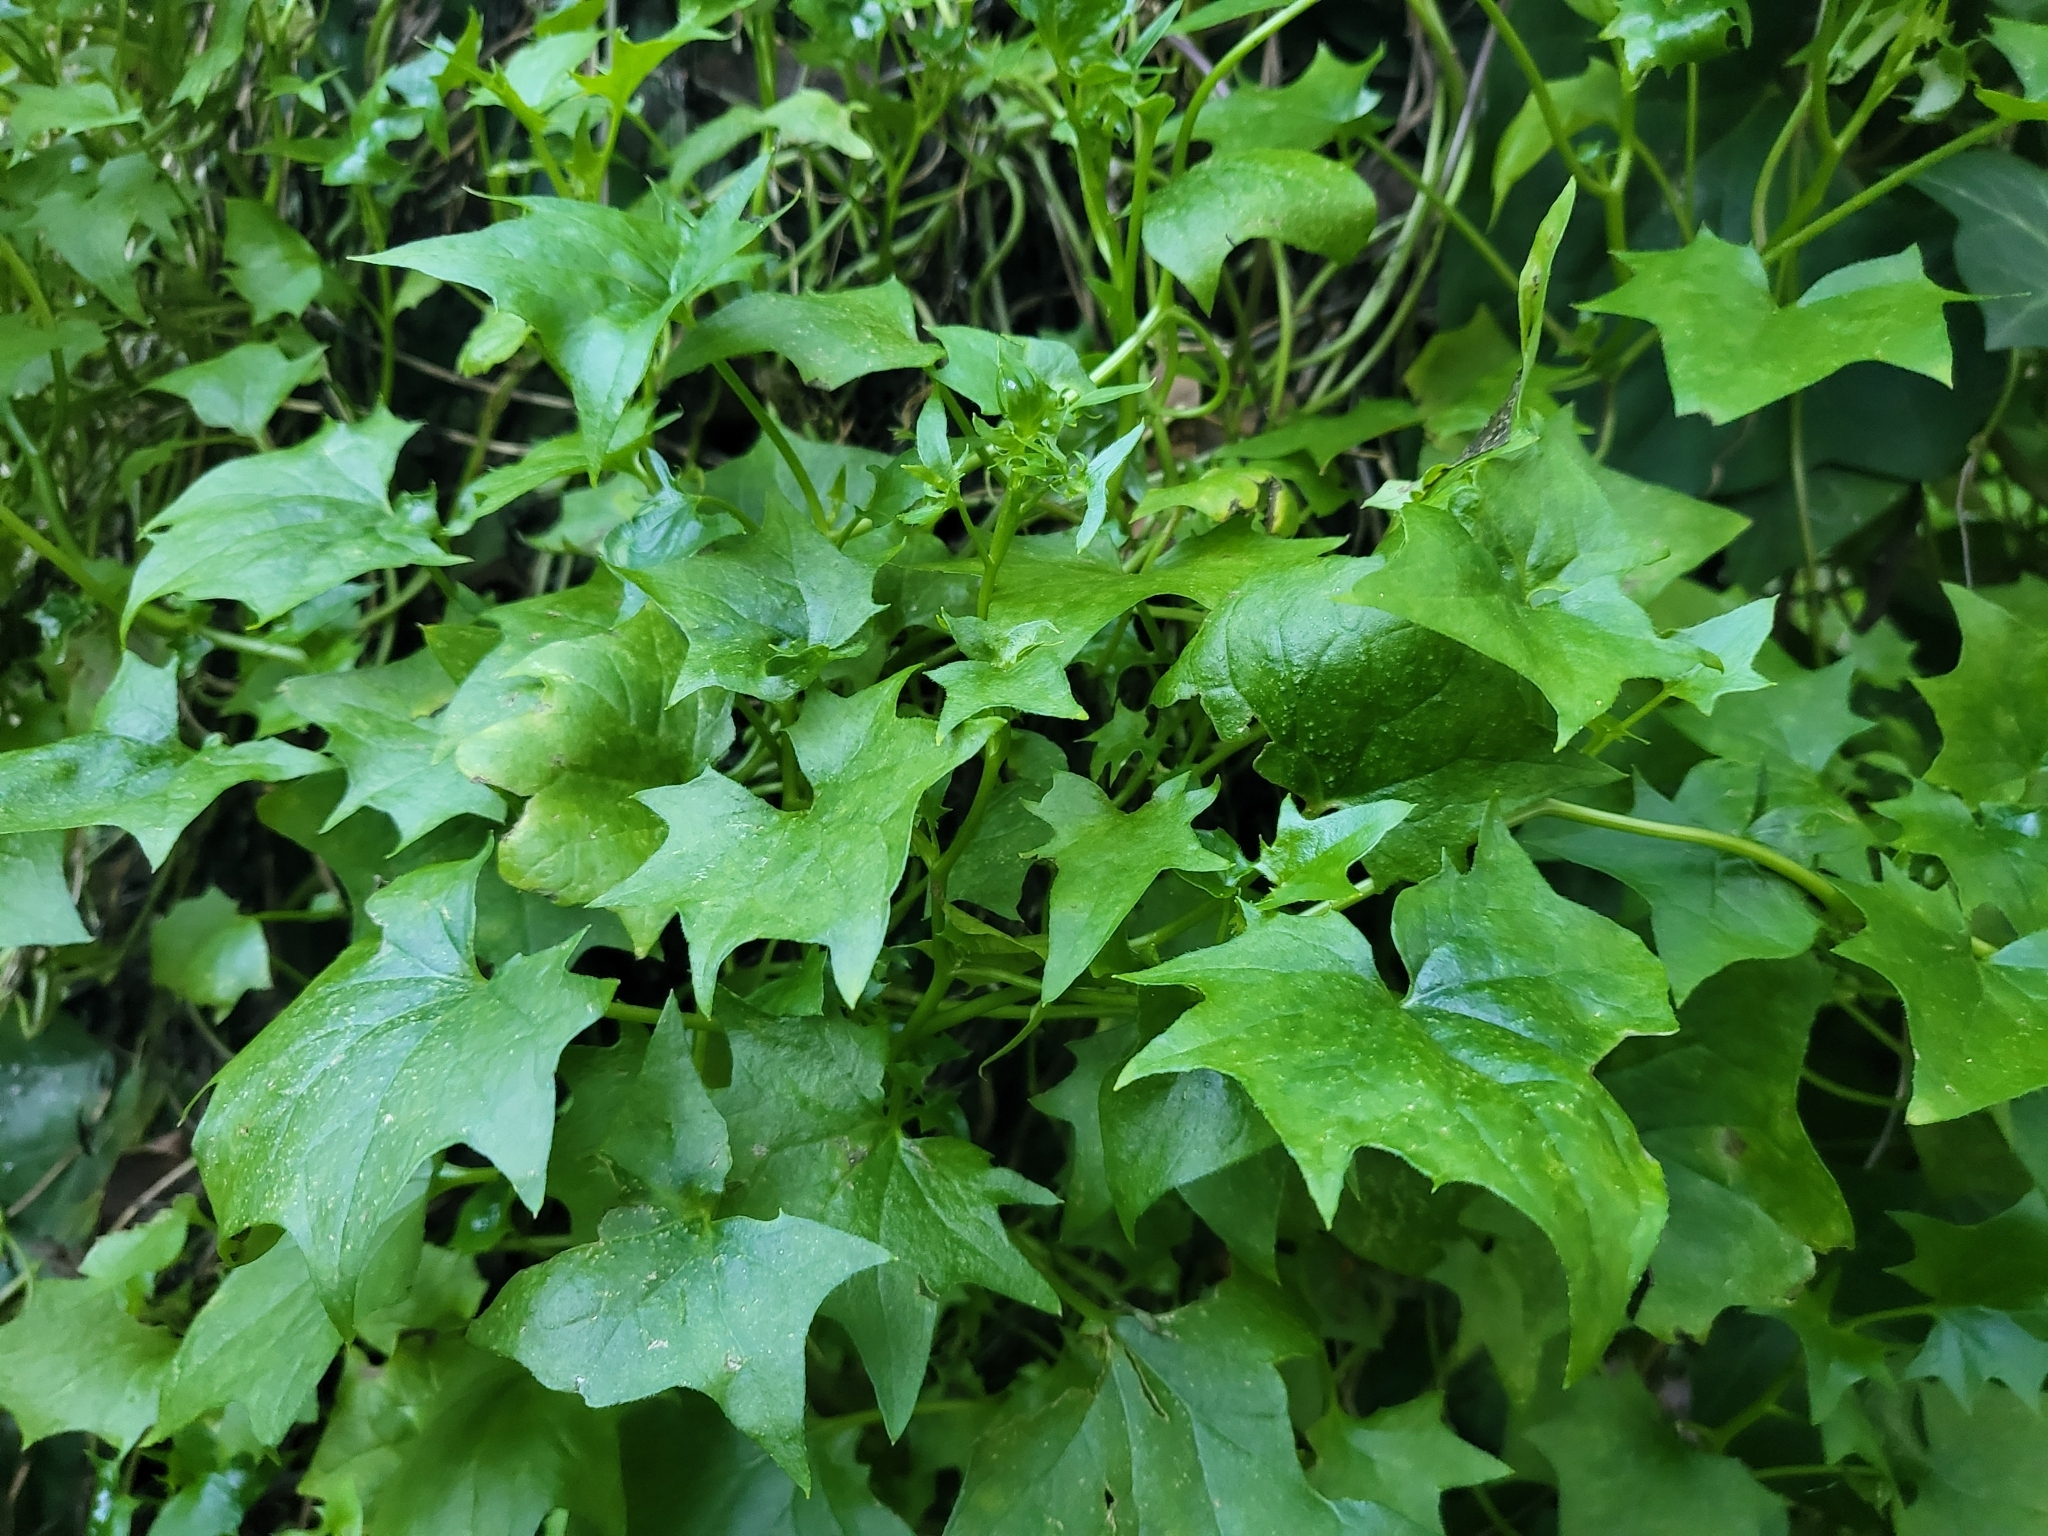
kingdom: Plantae
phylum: Tracheophyta
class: Magnoliopsida
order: Asterales
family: Asteraceae
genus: Delairea
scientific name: Delairea odorata
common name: Cape-ivy
